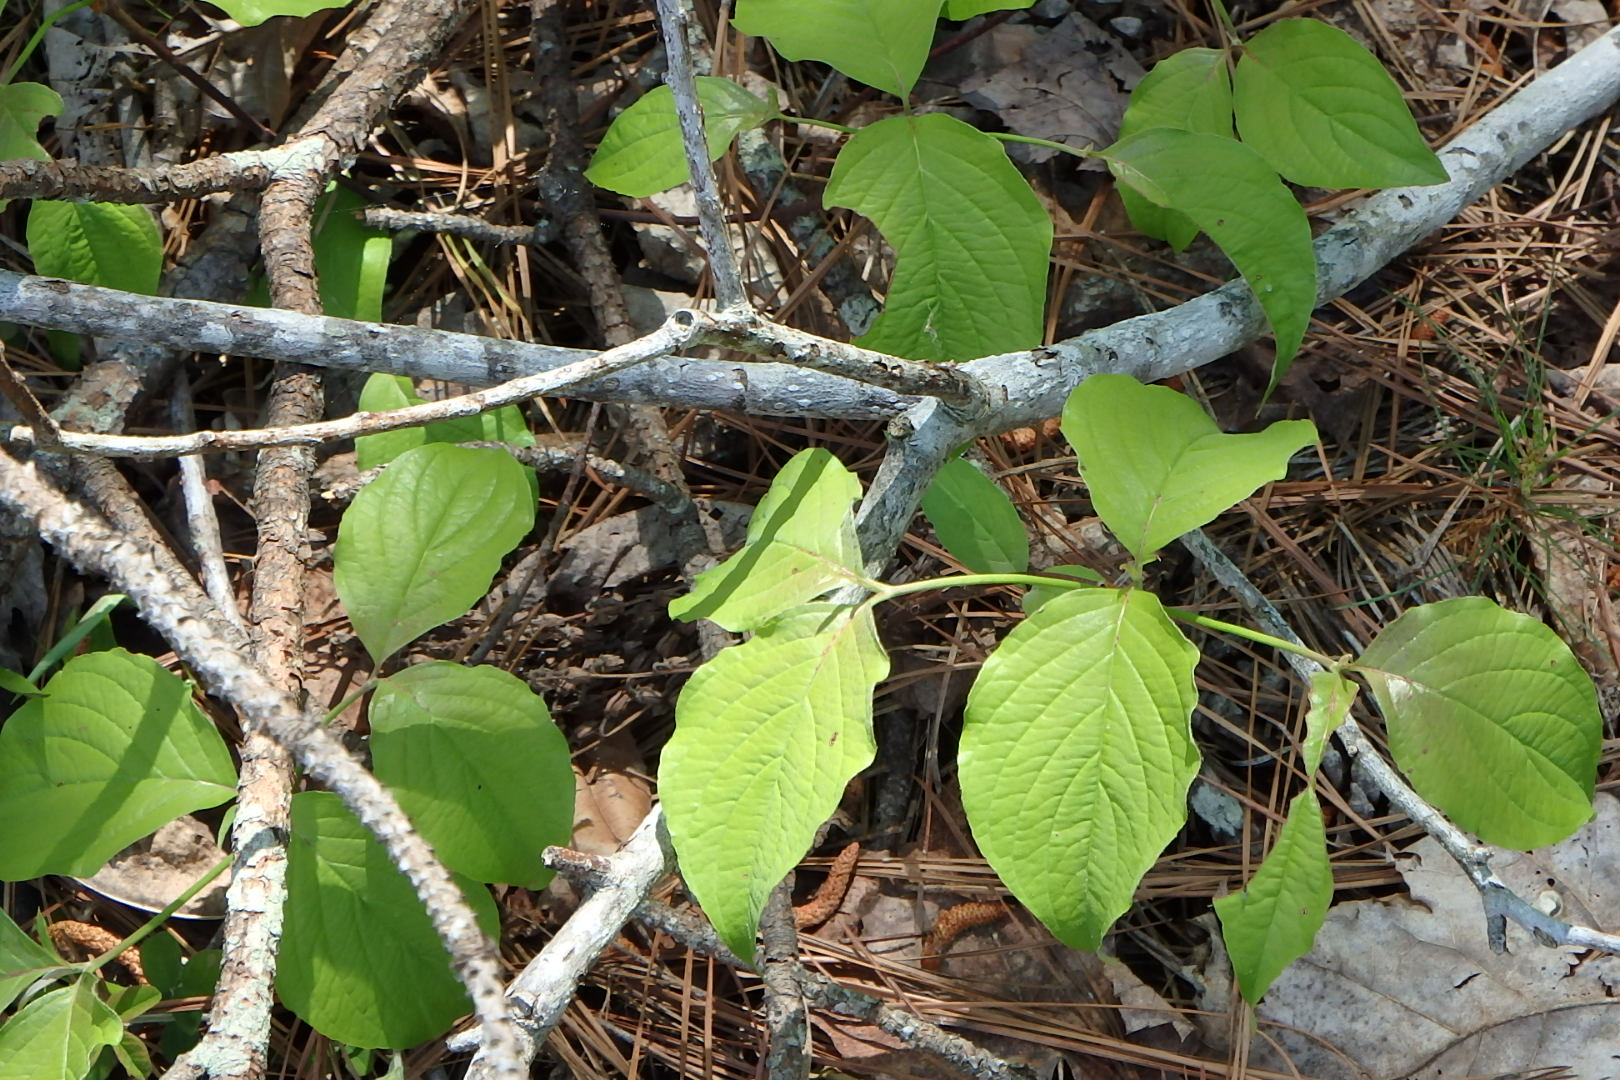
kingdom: Plantae
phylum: Tracheophyta
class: Magnoliopsida
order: Cornales
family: Cornaceae
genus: Cornus
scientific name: Cornus florida
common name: Flowering dogwood
